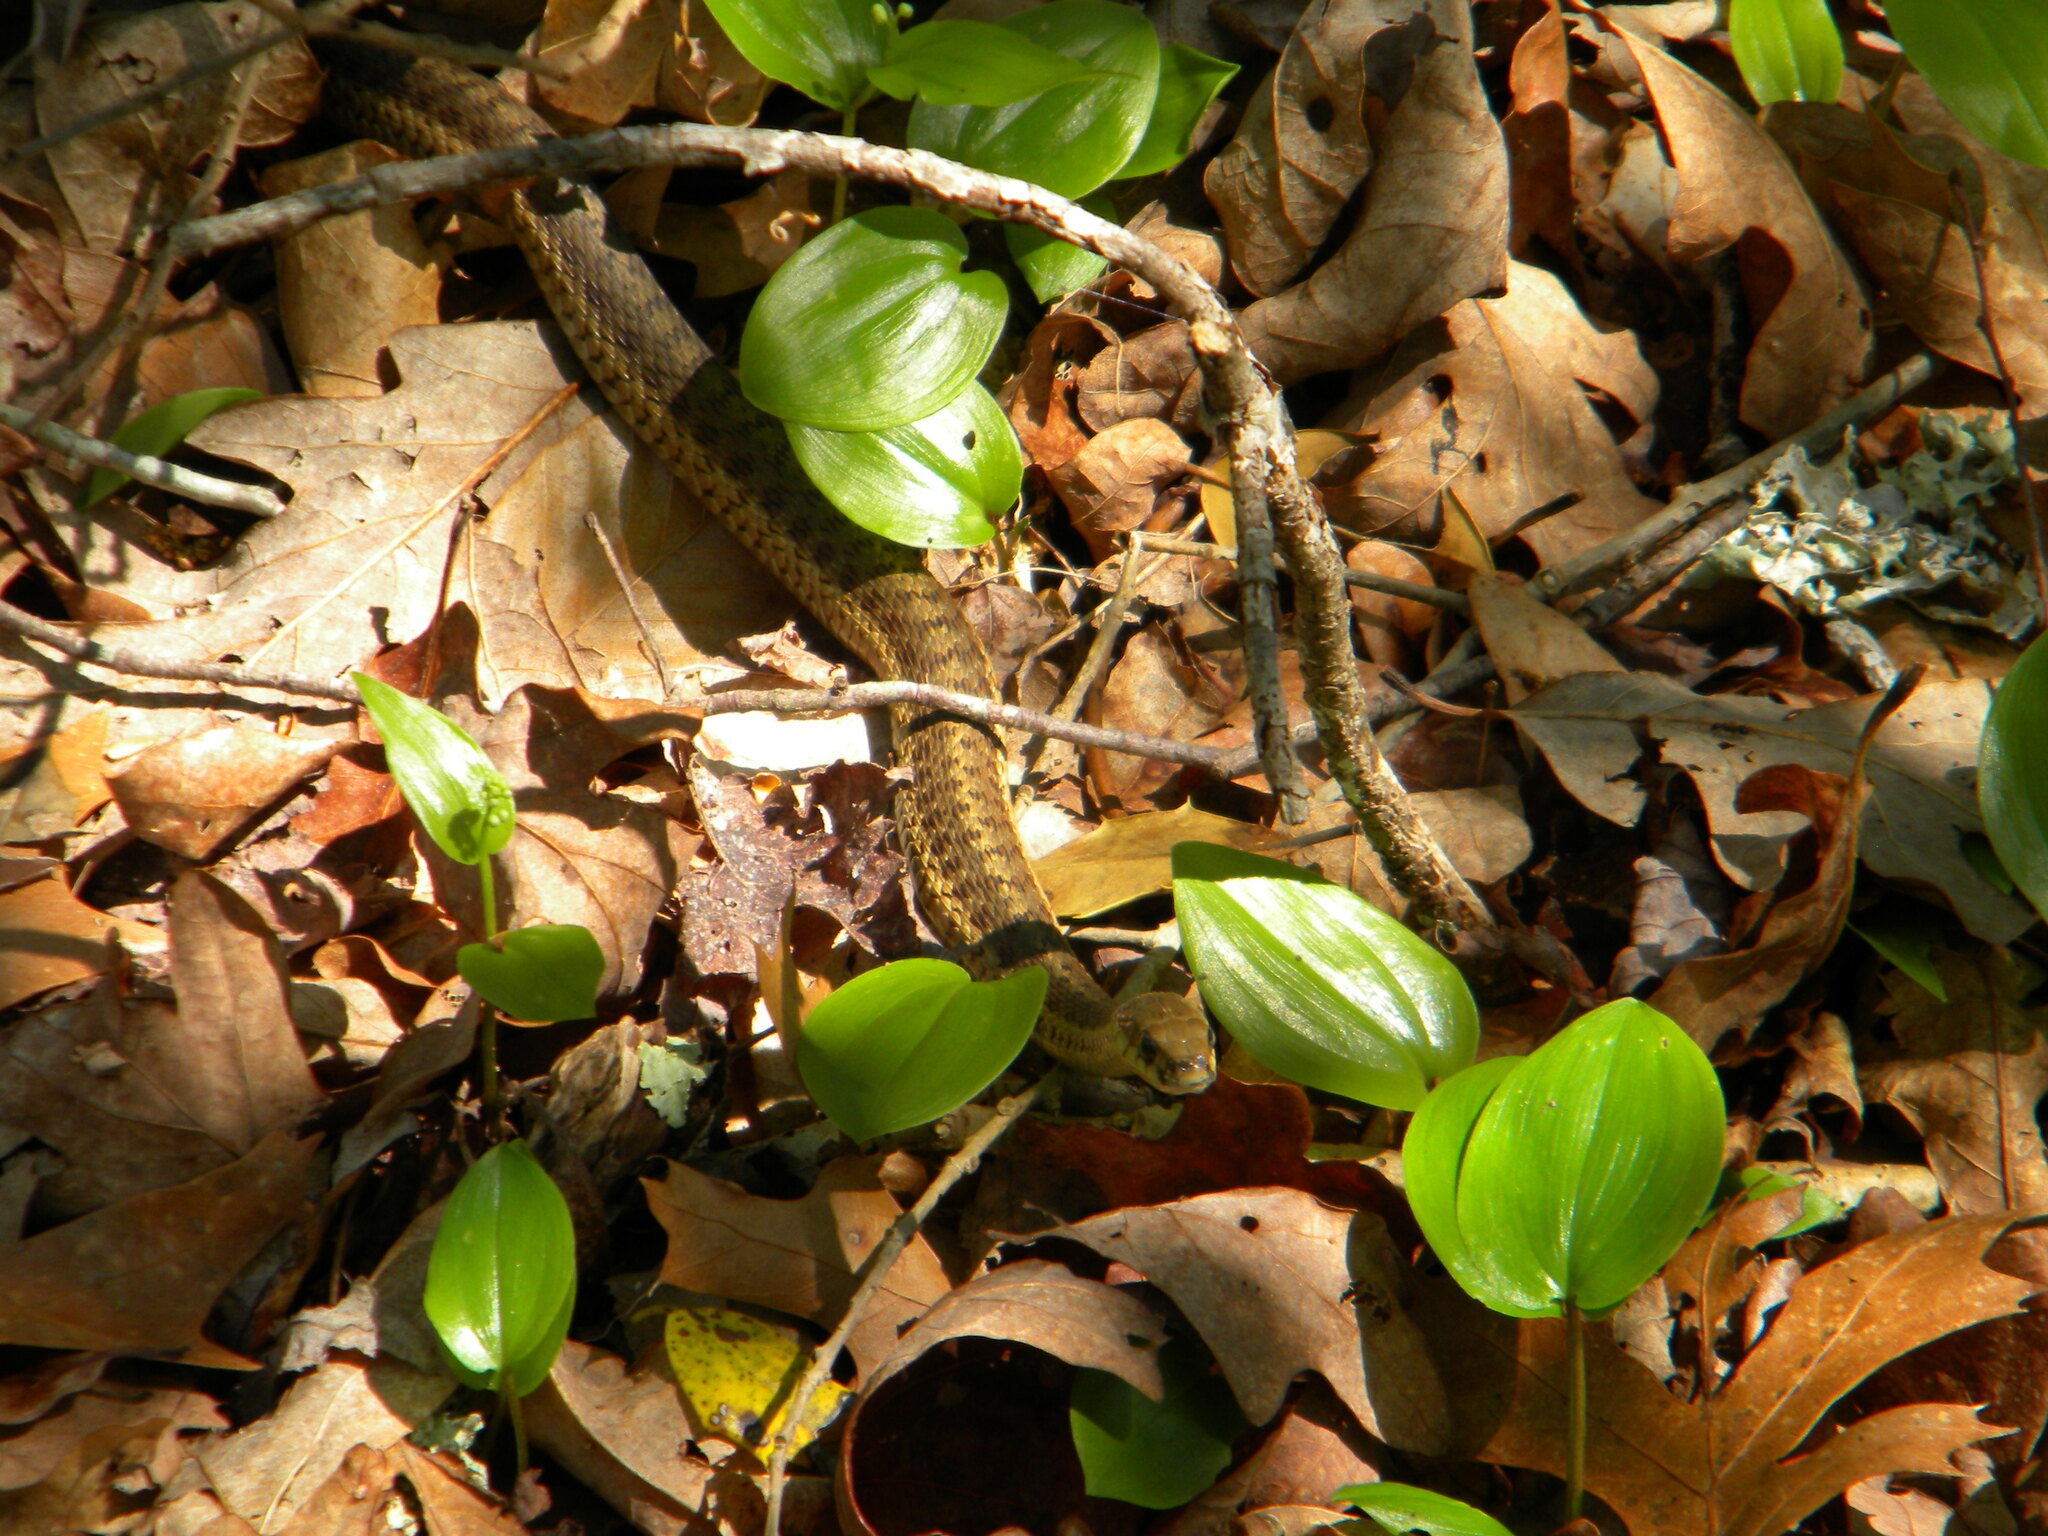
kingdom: Animalia
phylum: Chordata
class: Squamata
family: Colubridae
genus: Thamnophis
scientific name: Thamnophis sirtalis
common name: Common garter snake
